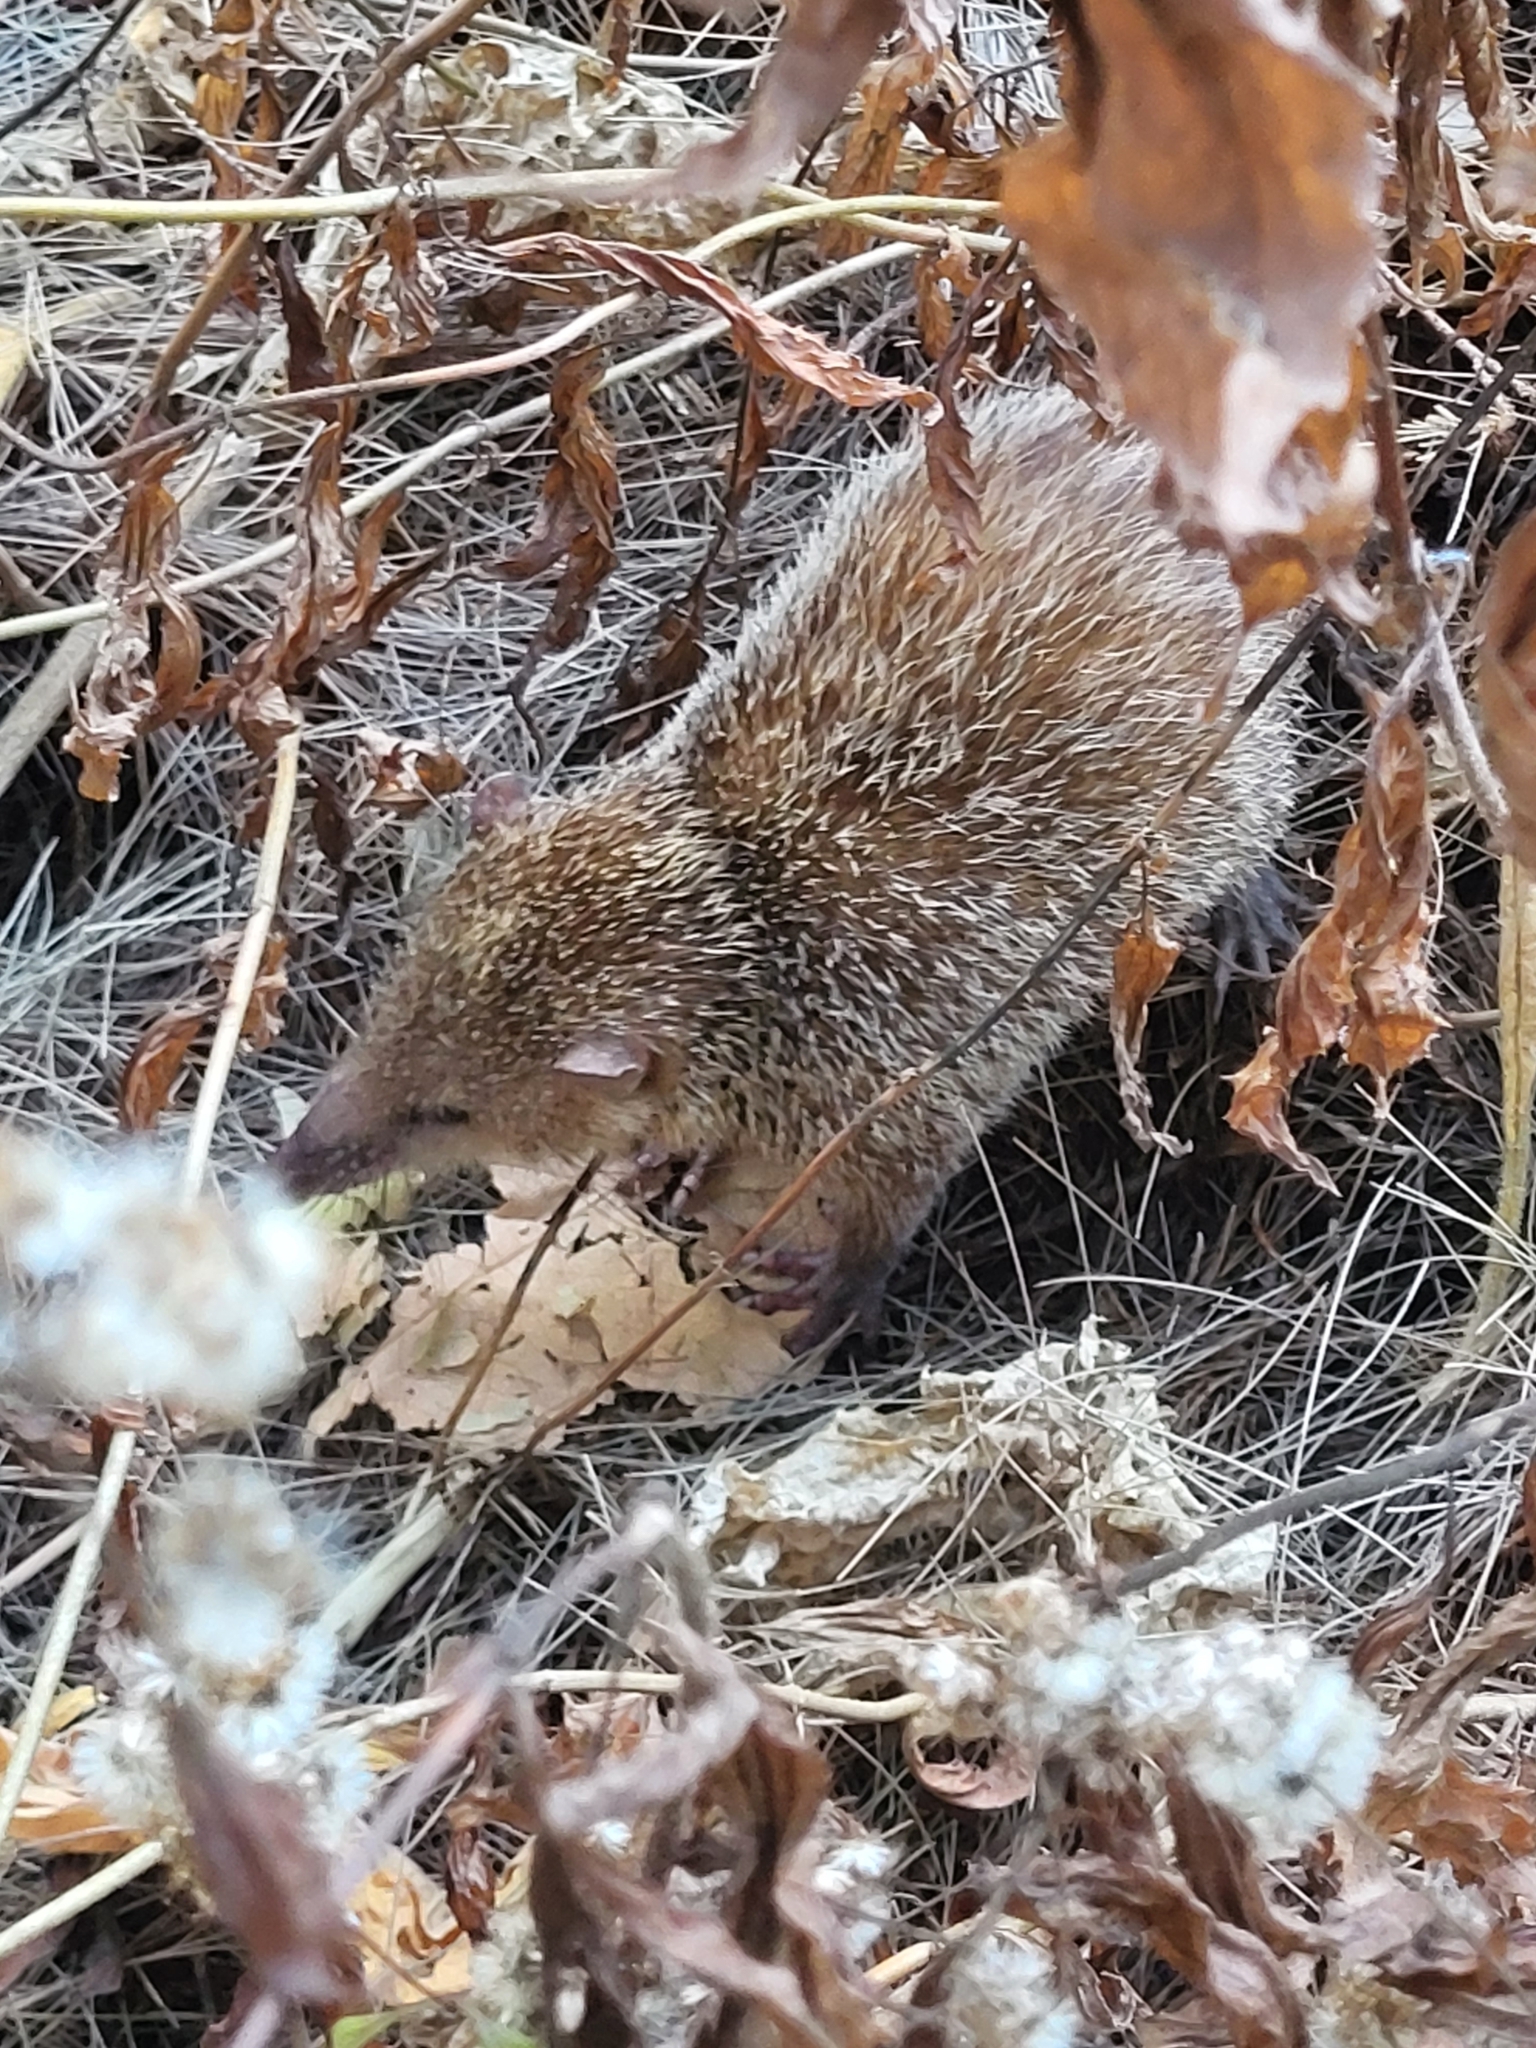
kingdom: Animalia
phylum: Chordata
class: Mammalia
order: Afrosoricida
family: Tenrecidae
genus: Tenrec
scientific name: Tenrec ecaudatus
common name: Common tenrec
